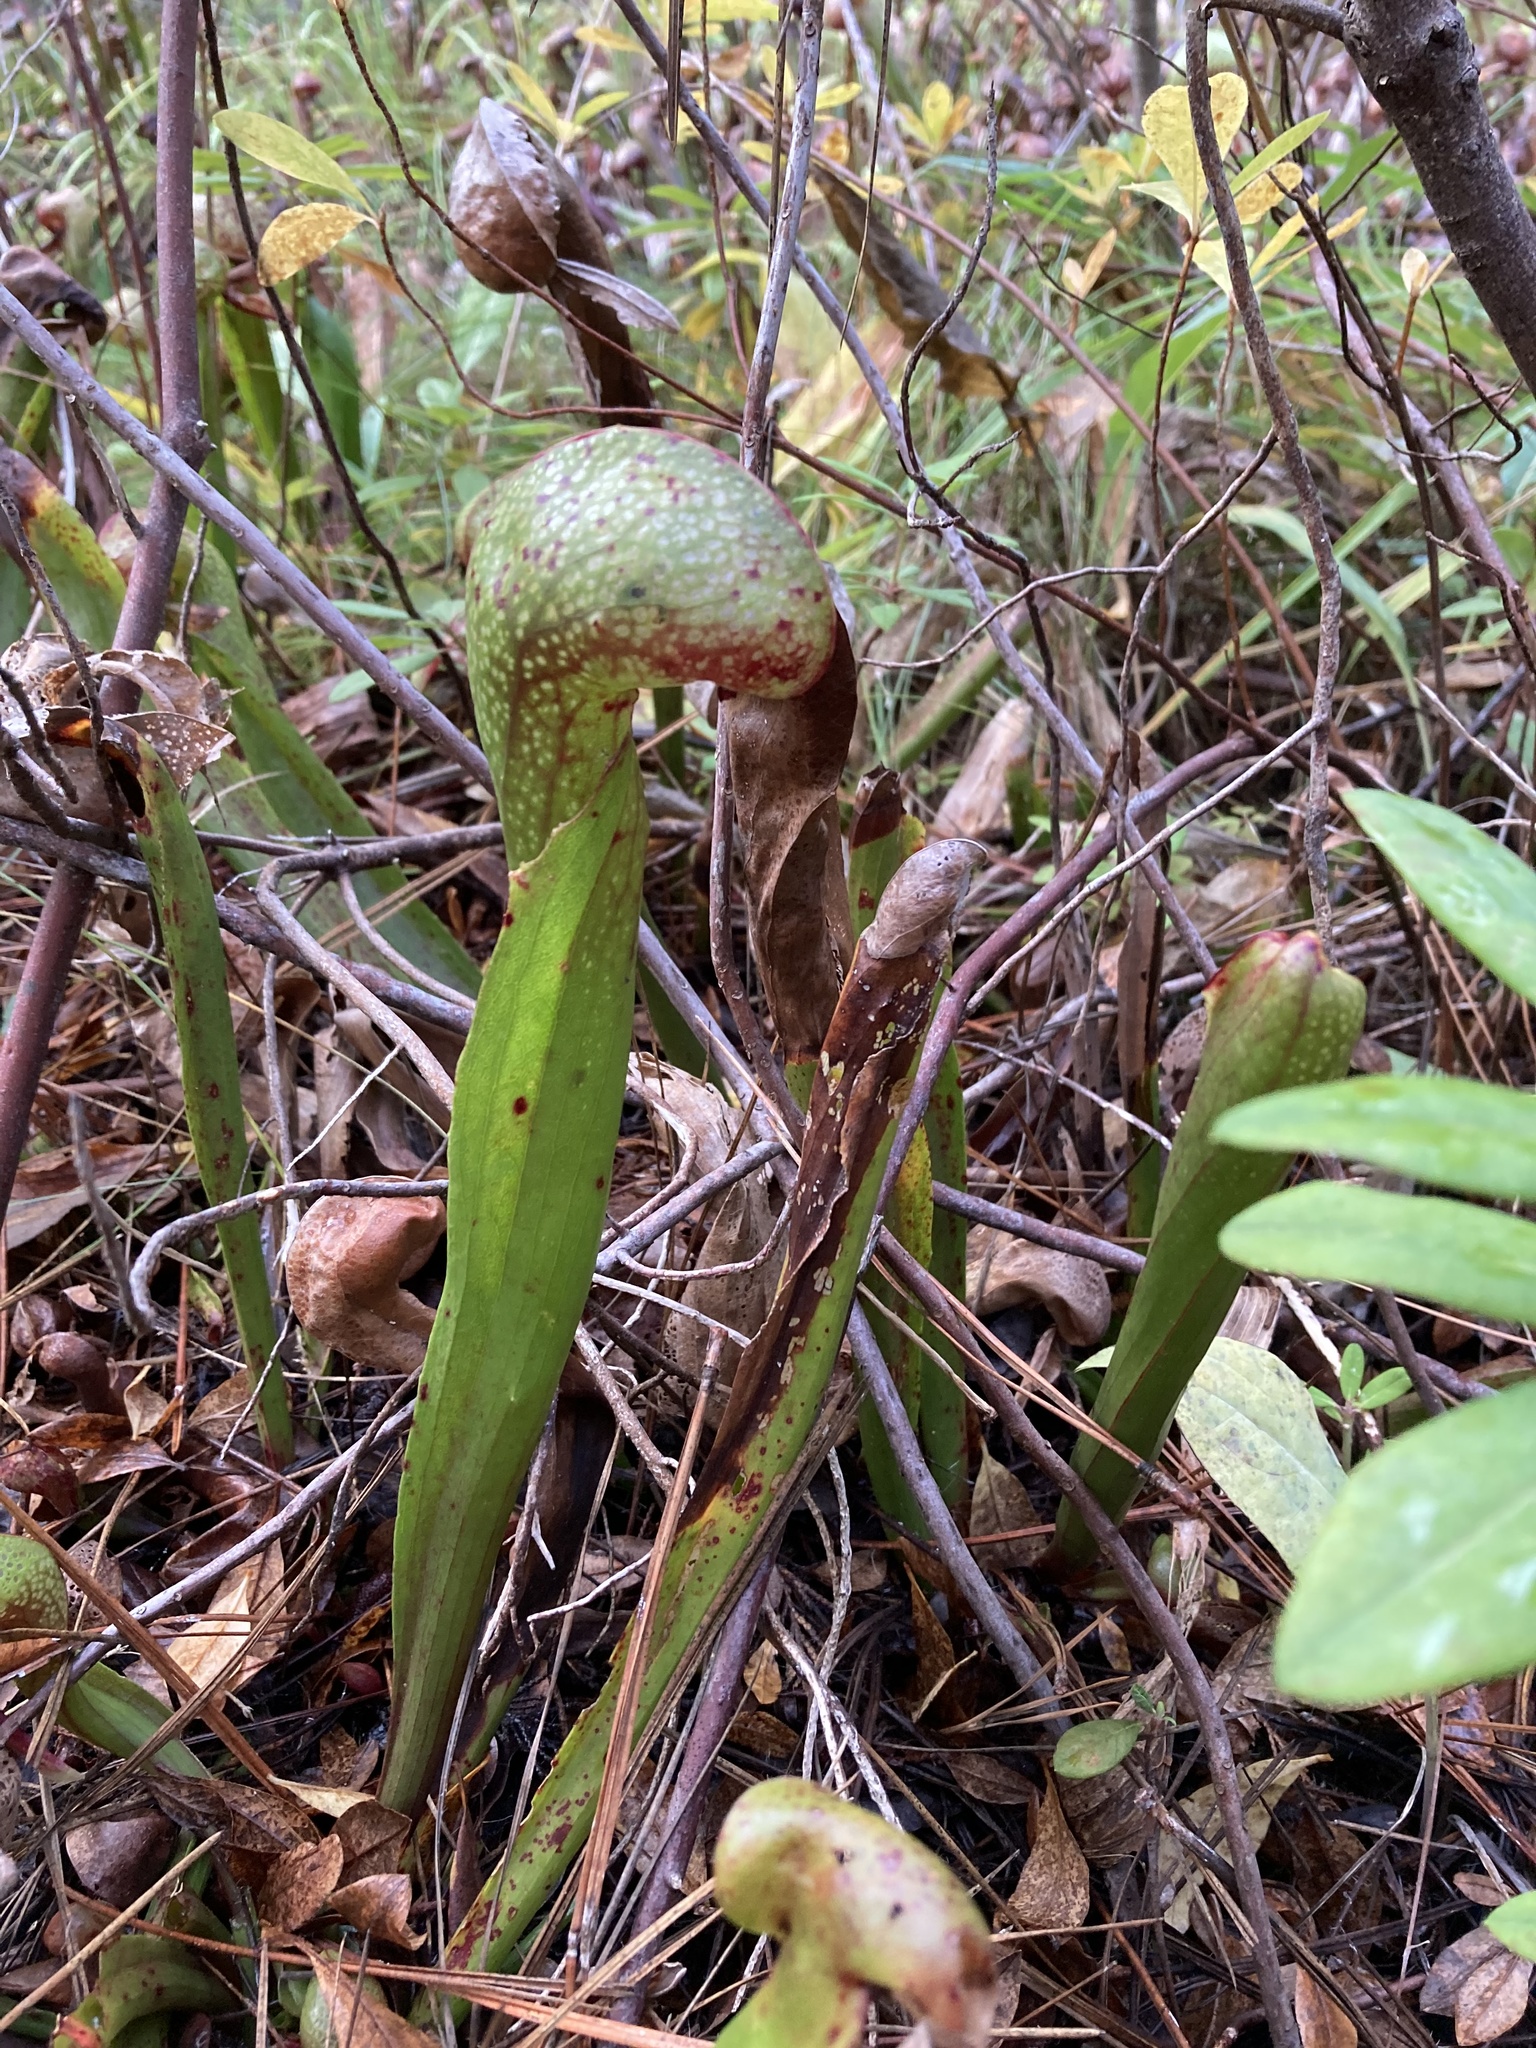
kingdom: Plantae
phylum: Tracheophyta
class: Magnoliopsida
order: Ericales
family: Sarraceniaceae
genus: Darlingtonia
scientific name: Darlingtonia californica
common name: California pitcher plant
